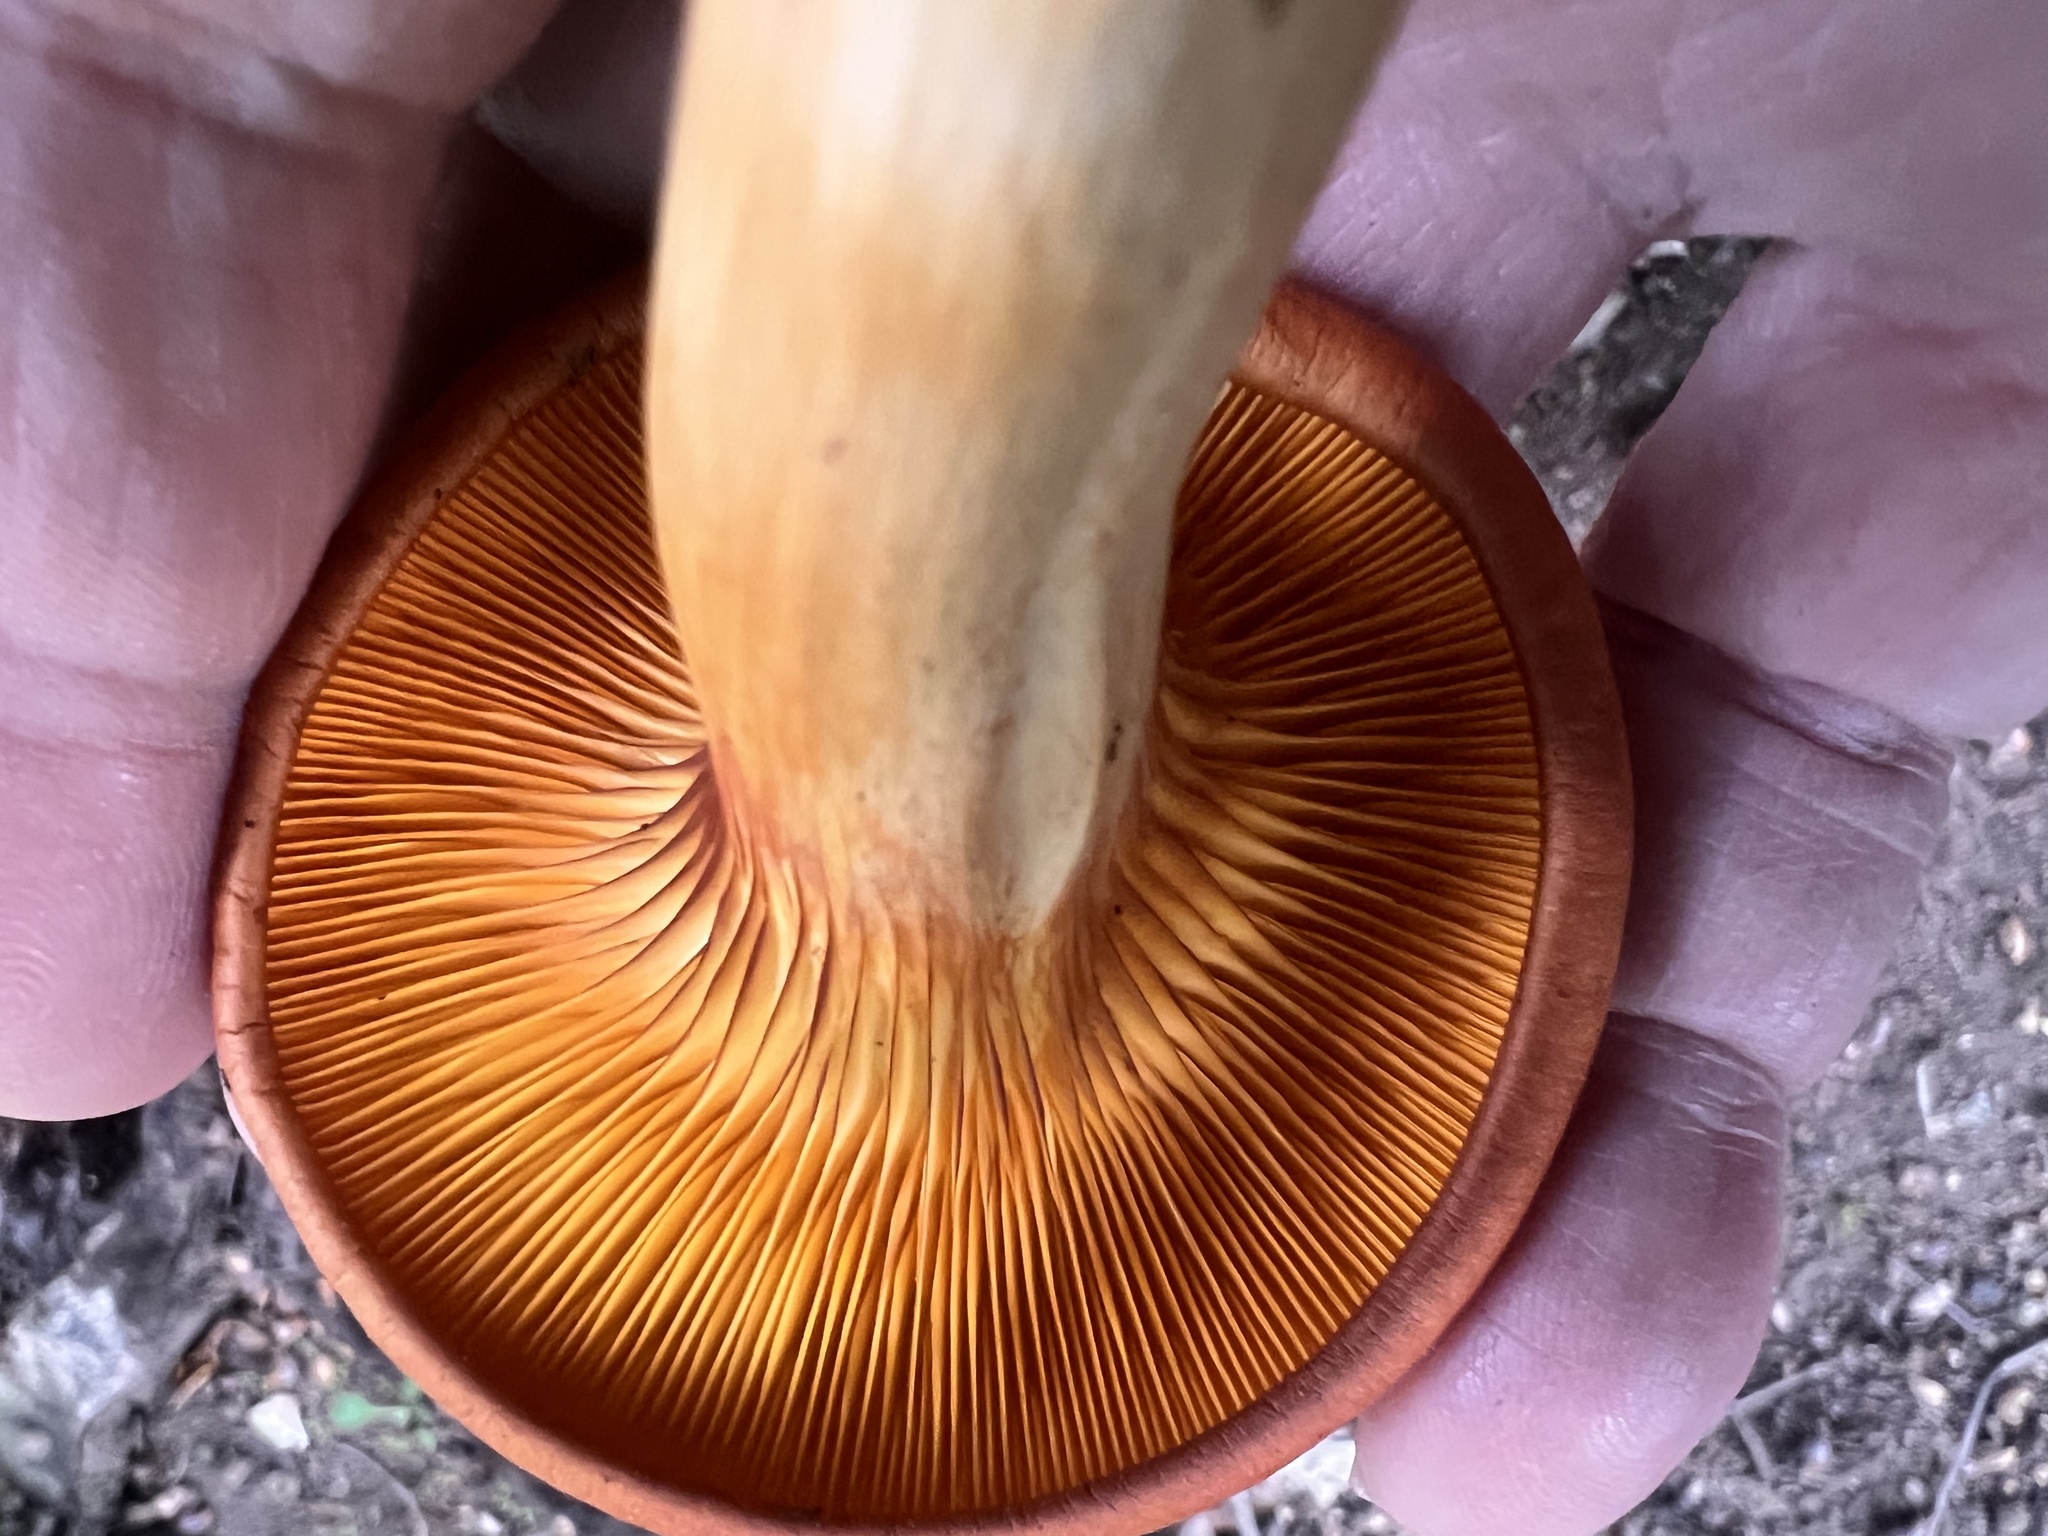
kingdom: Fungi
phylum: Basidiomycota
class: Agaricomycetes
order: Agaricales
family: Omphalotaceae
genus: Omphalotus
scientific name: Omphalotus illudens
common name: Jack o lantern
